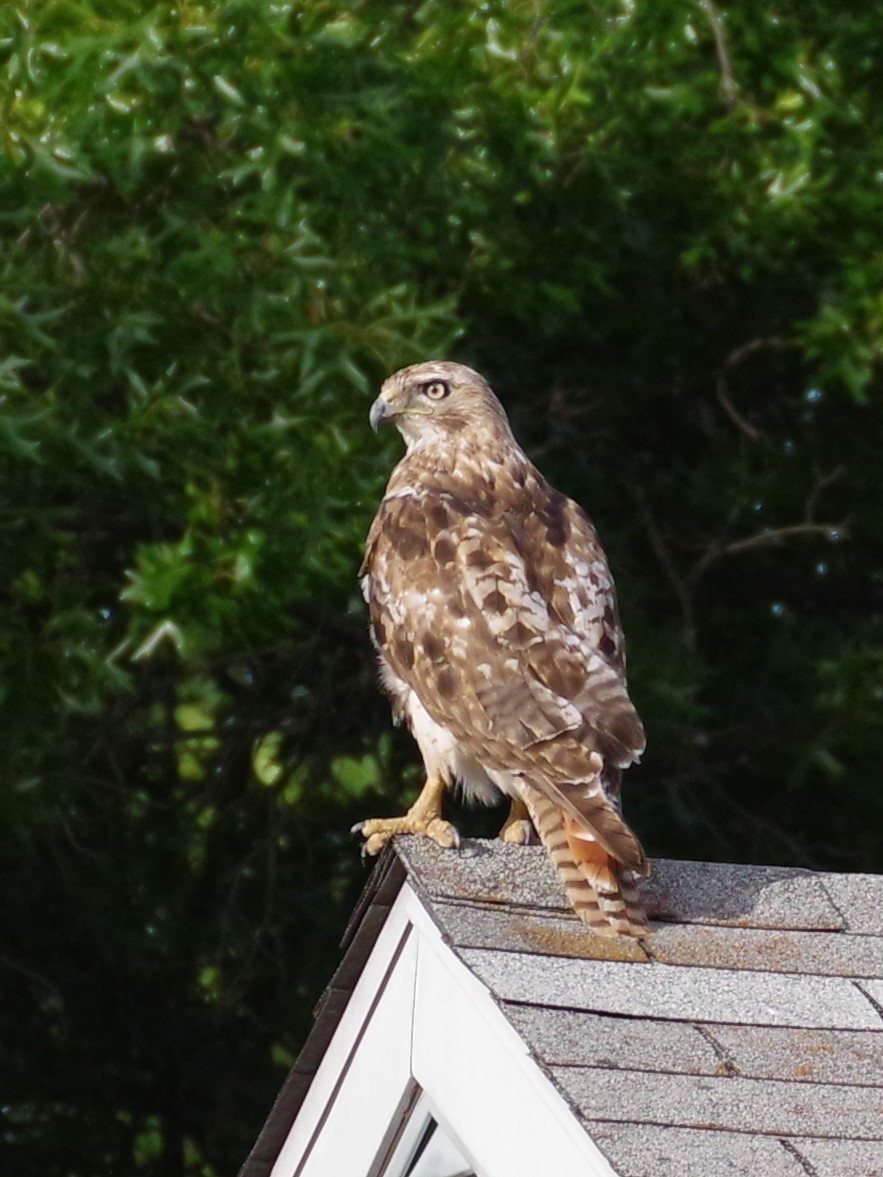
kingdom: Animalia
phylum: Chordata
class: Aves
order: Accipitriformes
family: Accipitridae
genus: Buteo
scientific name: Buteo jamaicensis
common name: Red-tailed hawk
